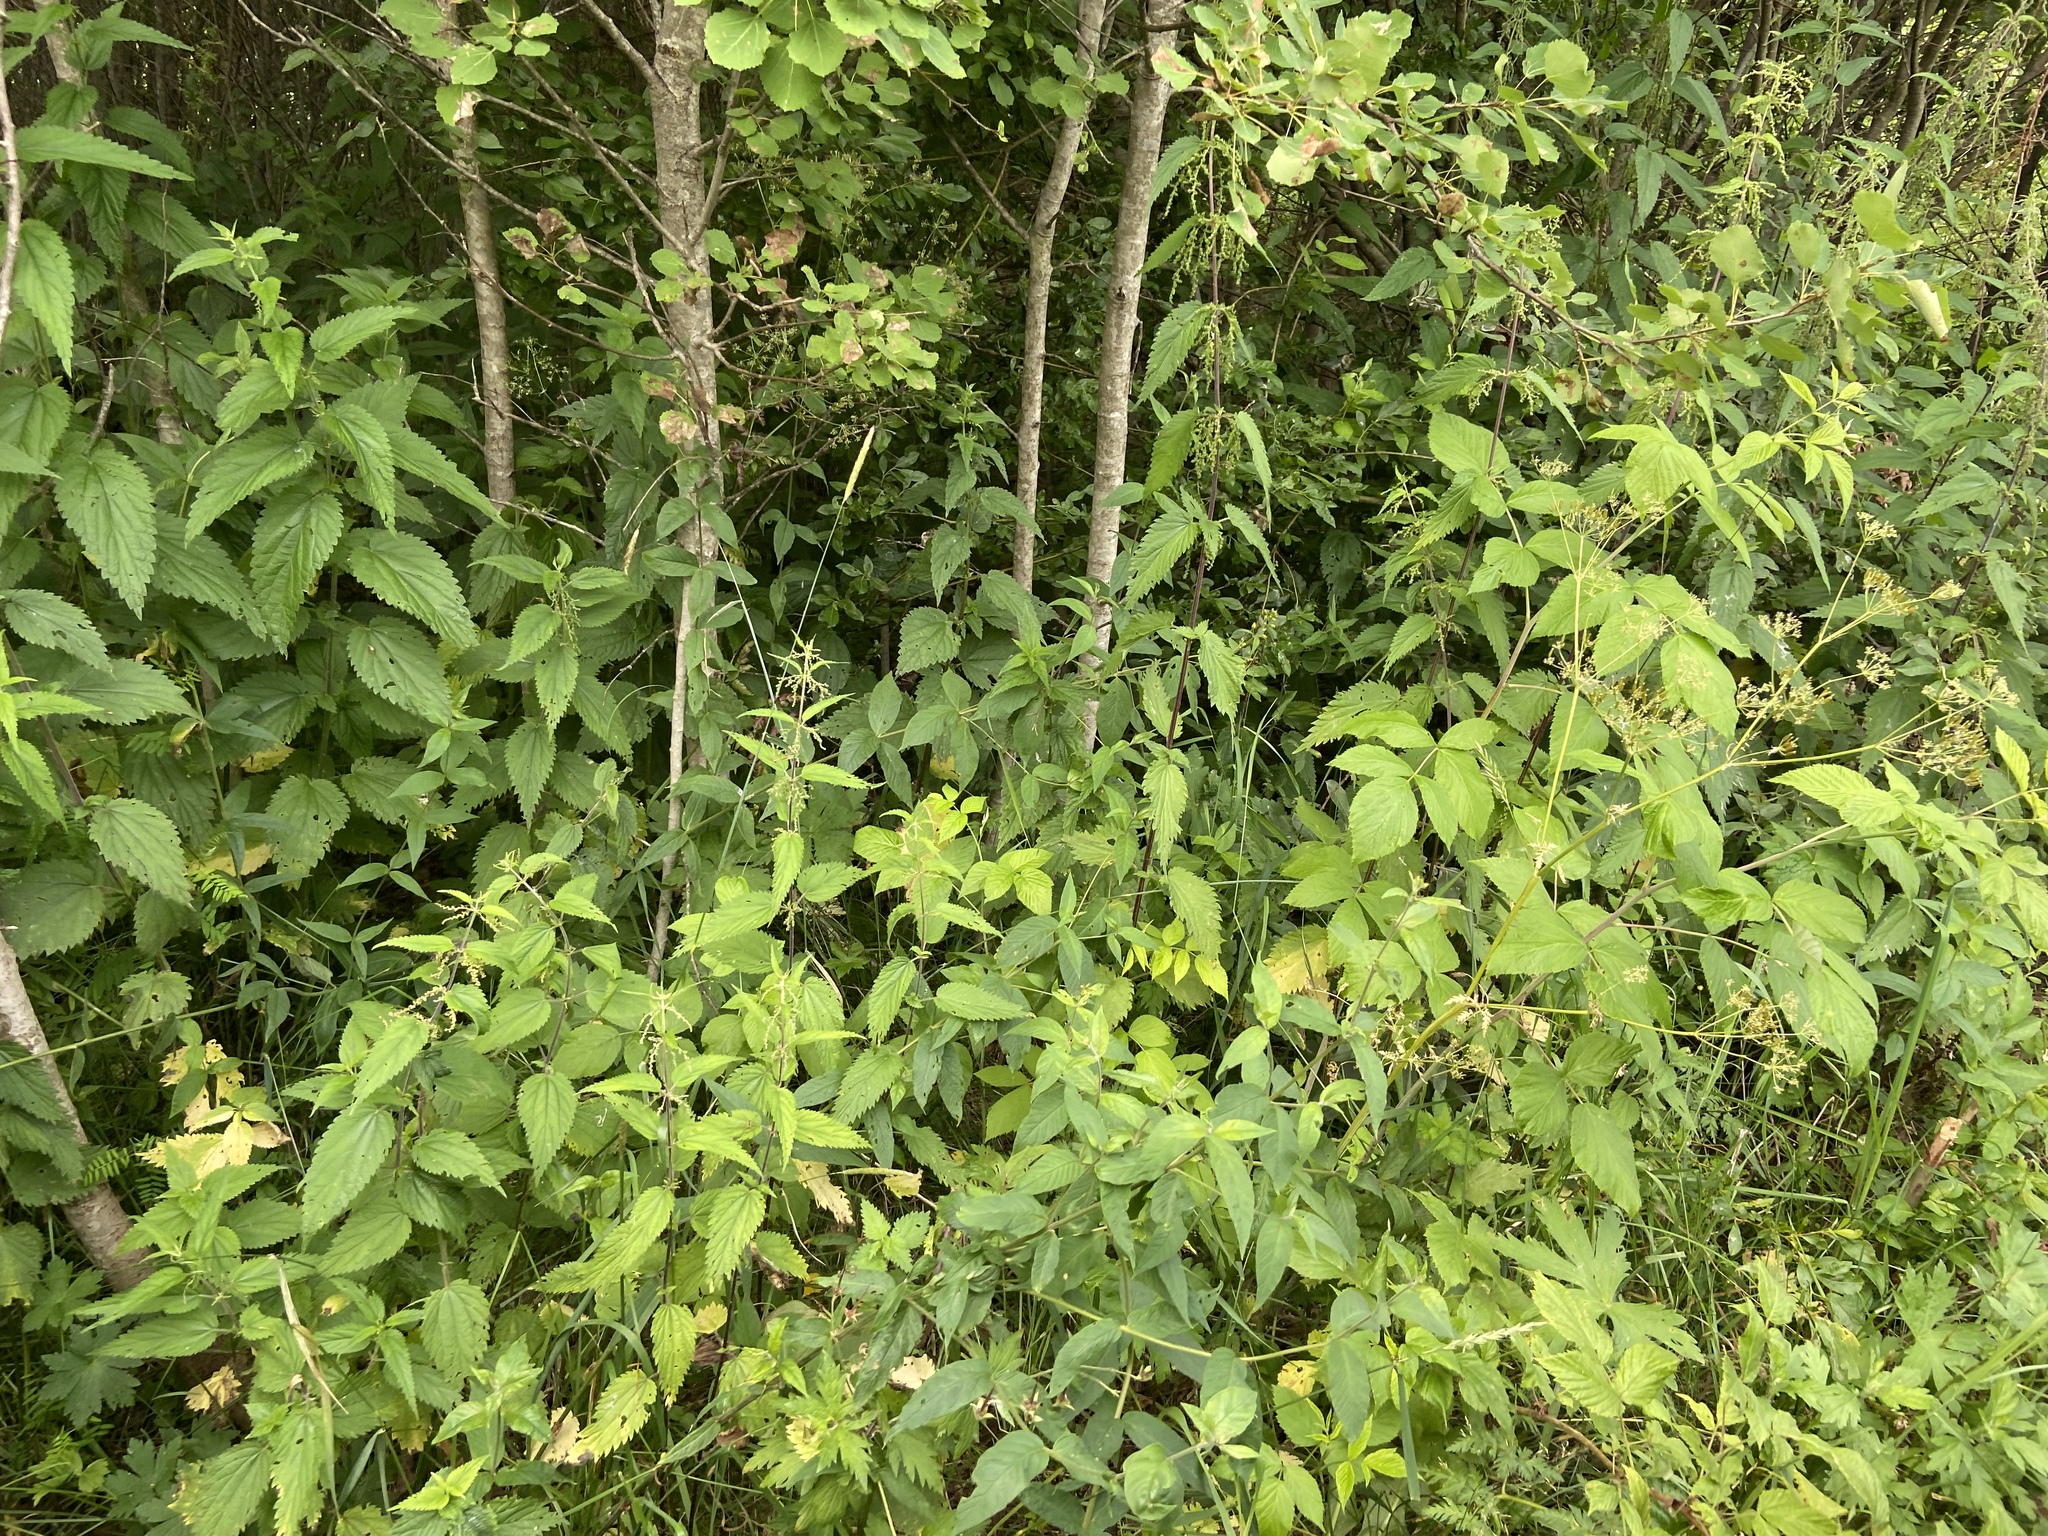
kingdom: Plantae
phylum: Tracheophyta
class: Magnoliopsida
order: Rosales
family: Urticaceae
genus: Urtica
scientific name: Urtica dioica
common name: Common nettle
